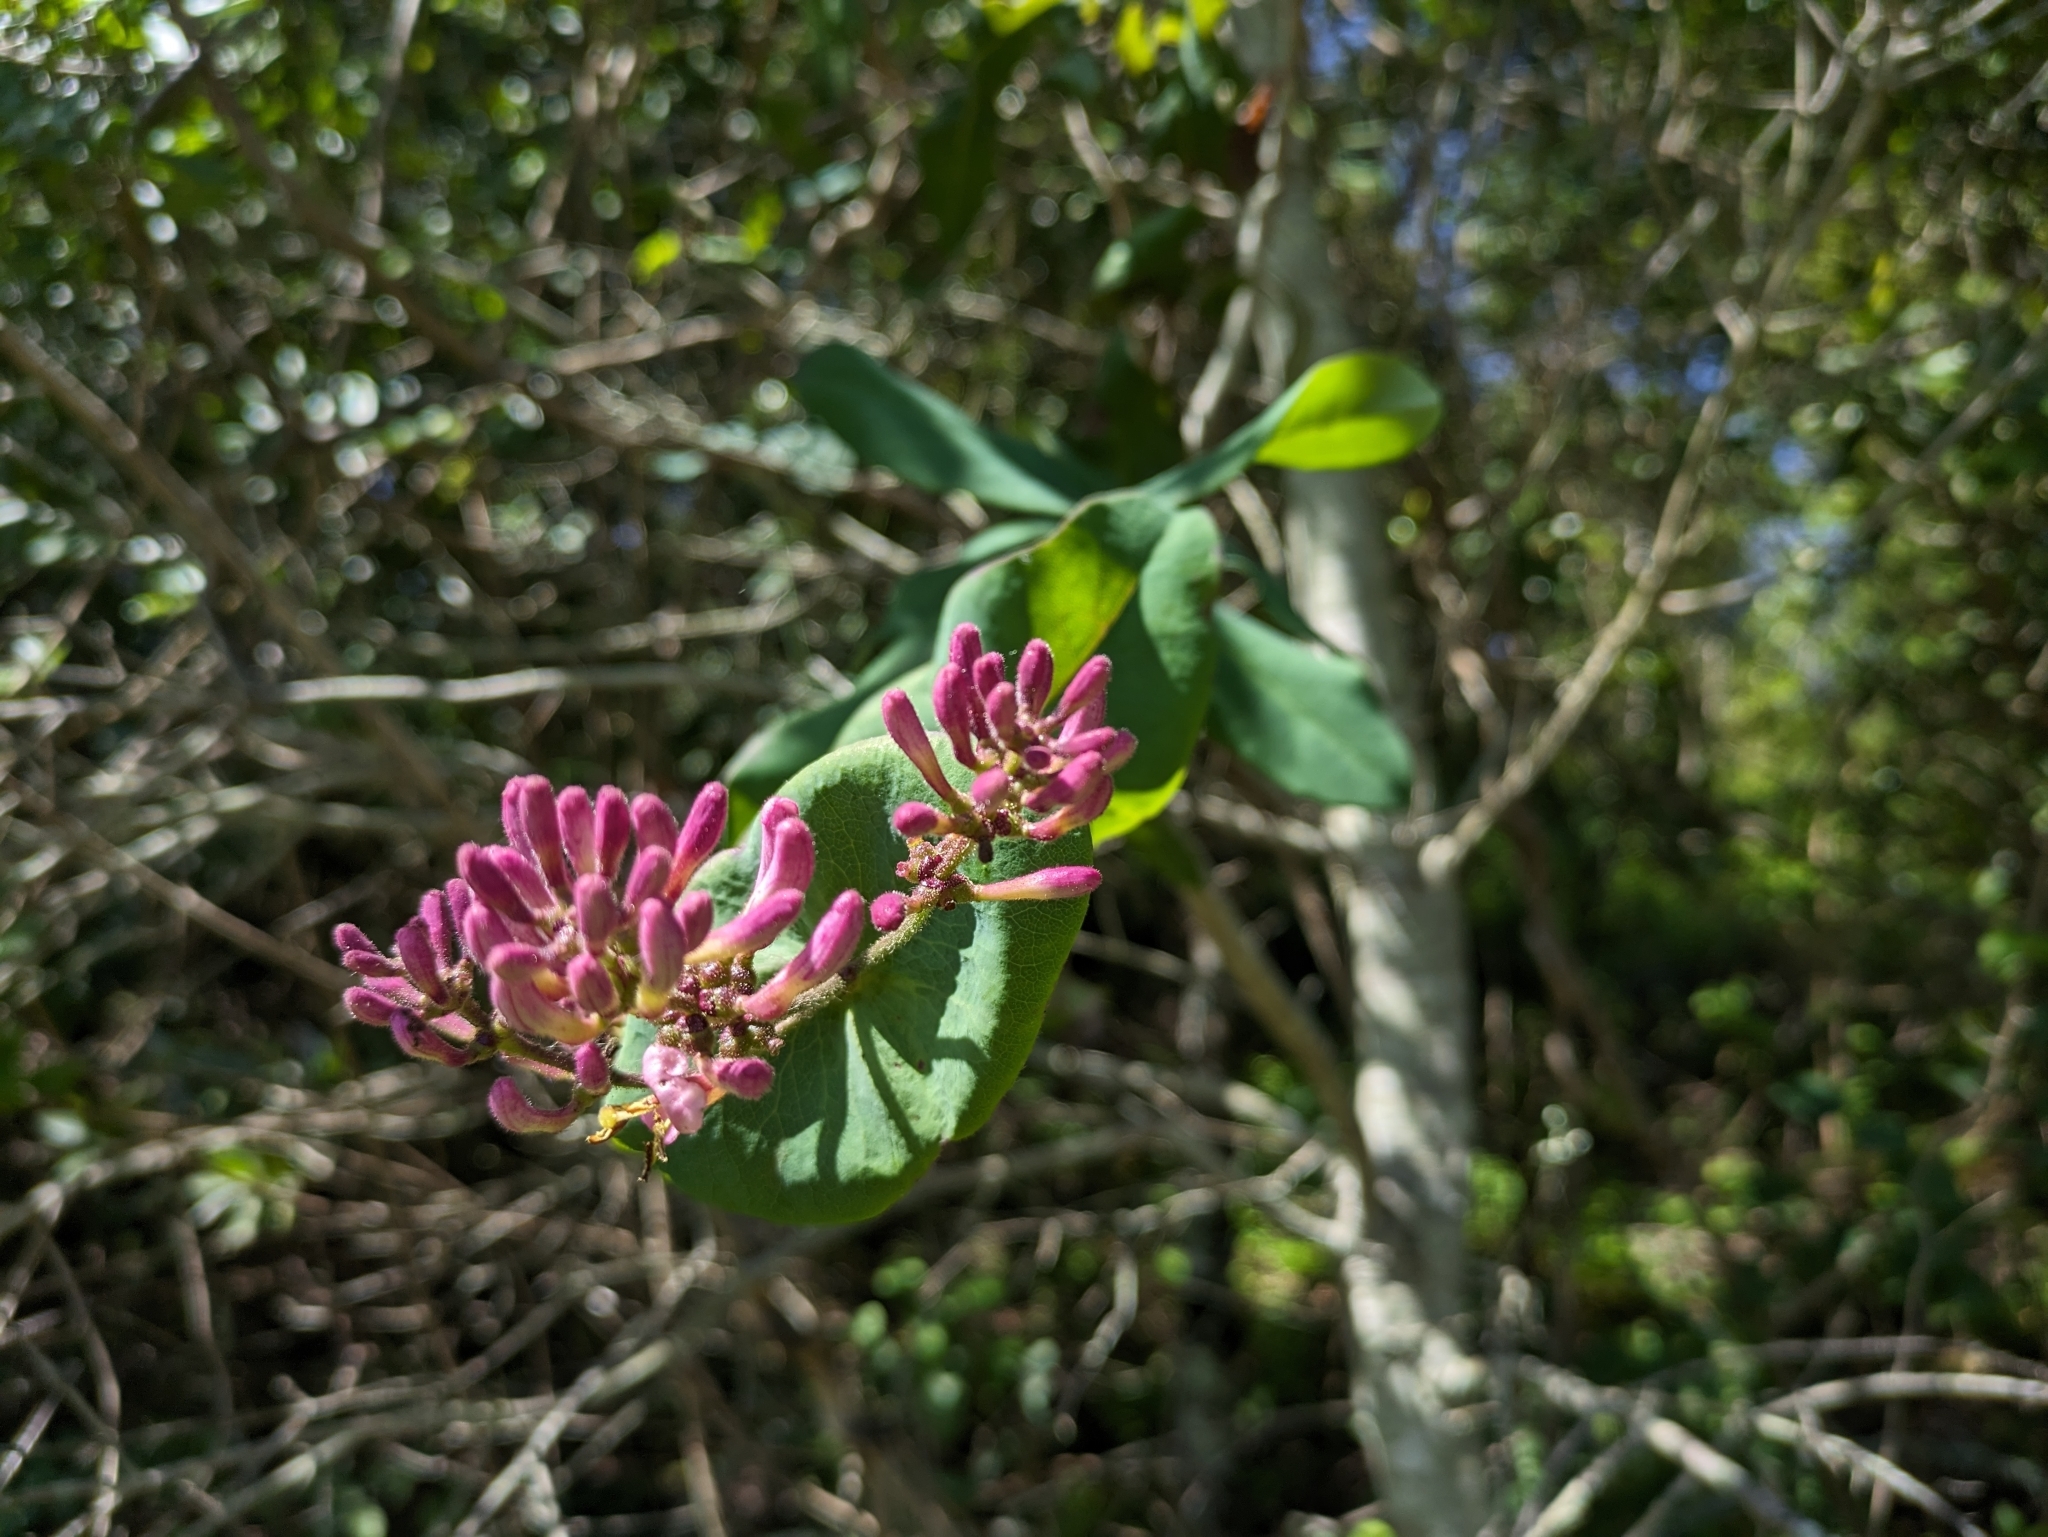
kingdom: Plantae
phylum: Tracheophyta
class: Magnoliopsida
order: Dipsacales
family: Caprifoliaceae
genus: Lonicera
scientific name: Lonicera hispidula
